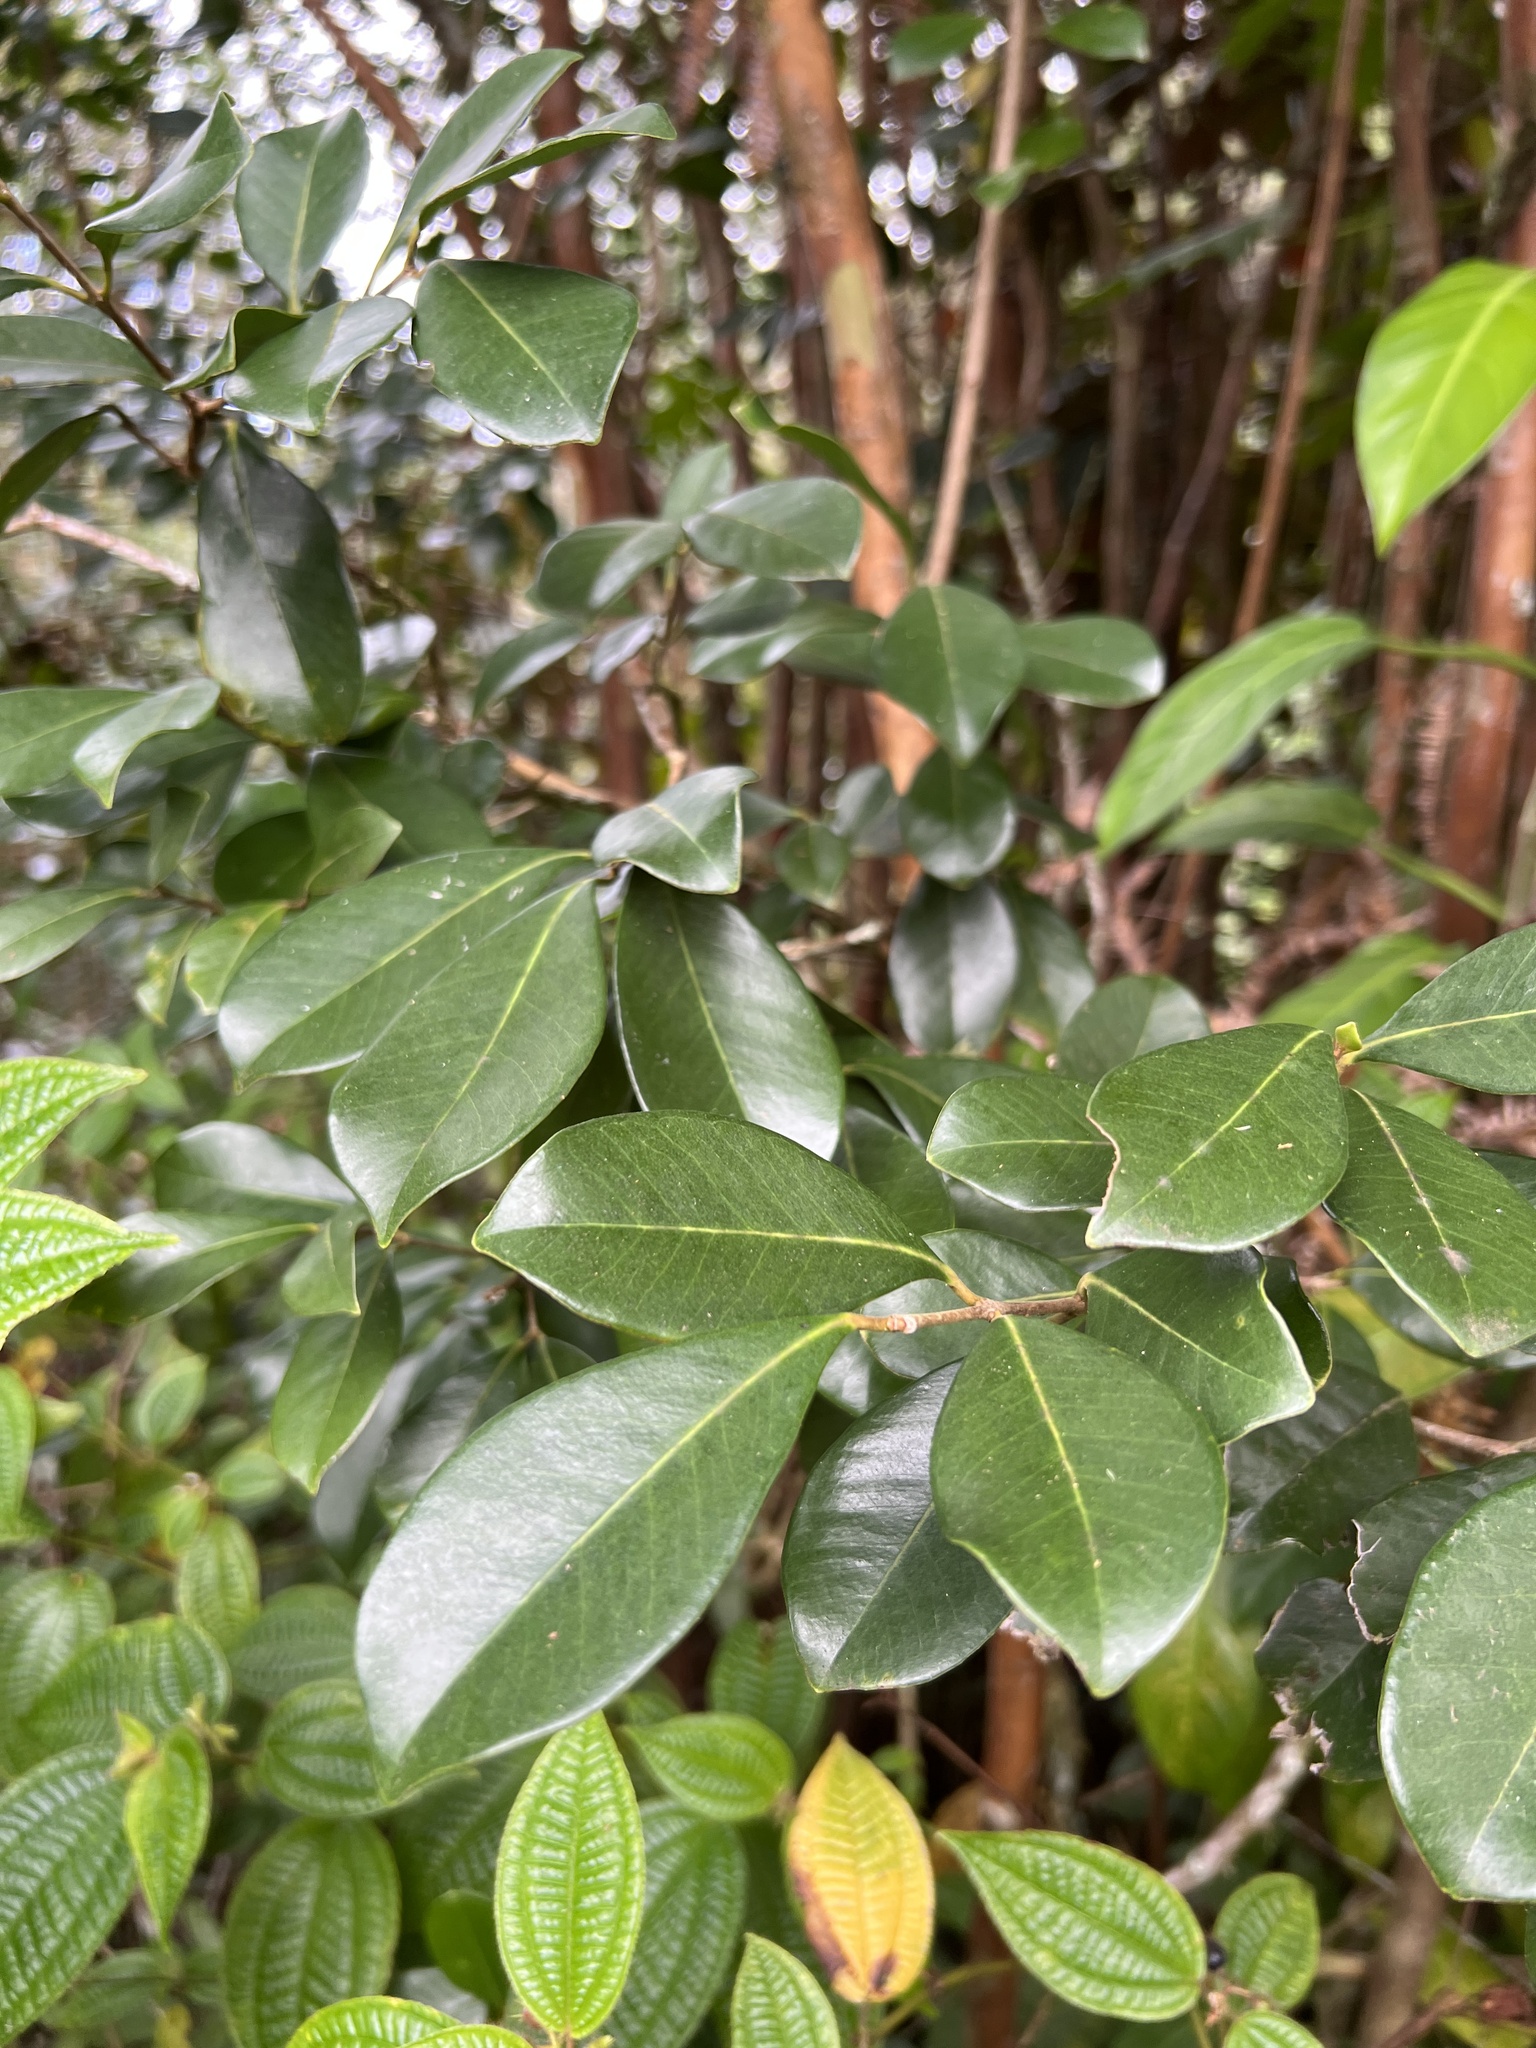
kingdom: Plantae
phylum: Tracheophyta
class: Magnoliopsida
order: Myrtales
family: Myrtaceae
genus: Psidium
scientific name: Psidium cattleianum
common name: Strawberry guava
